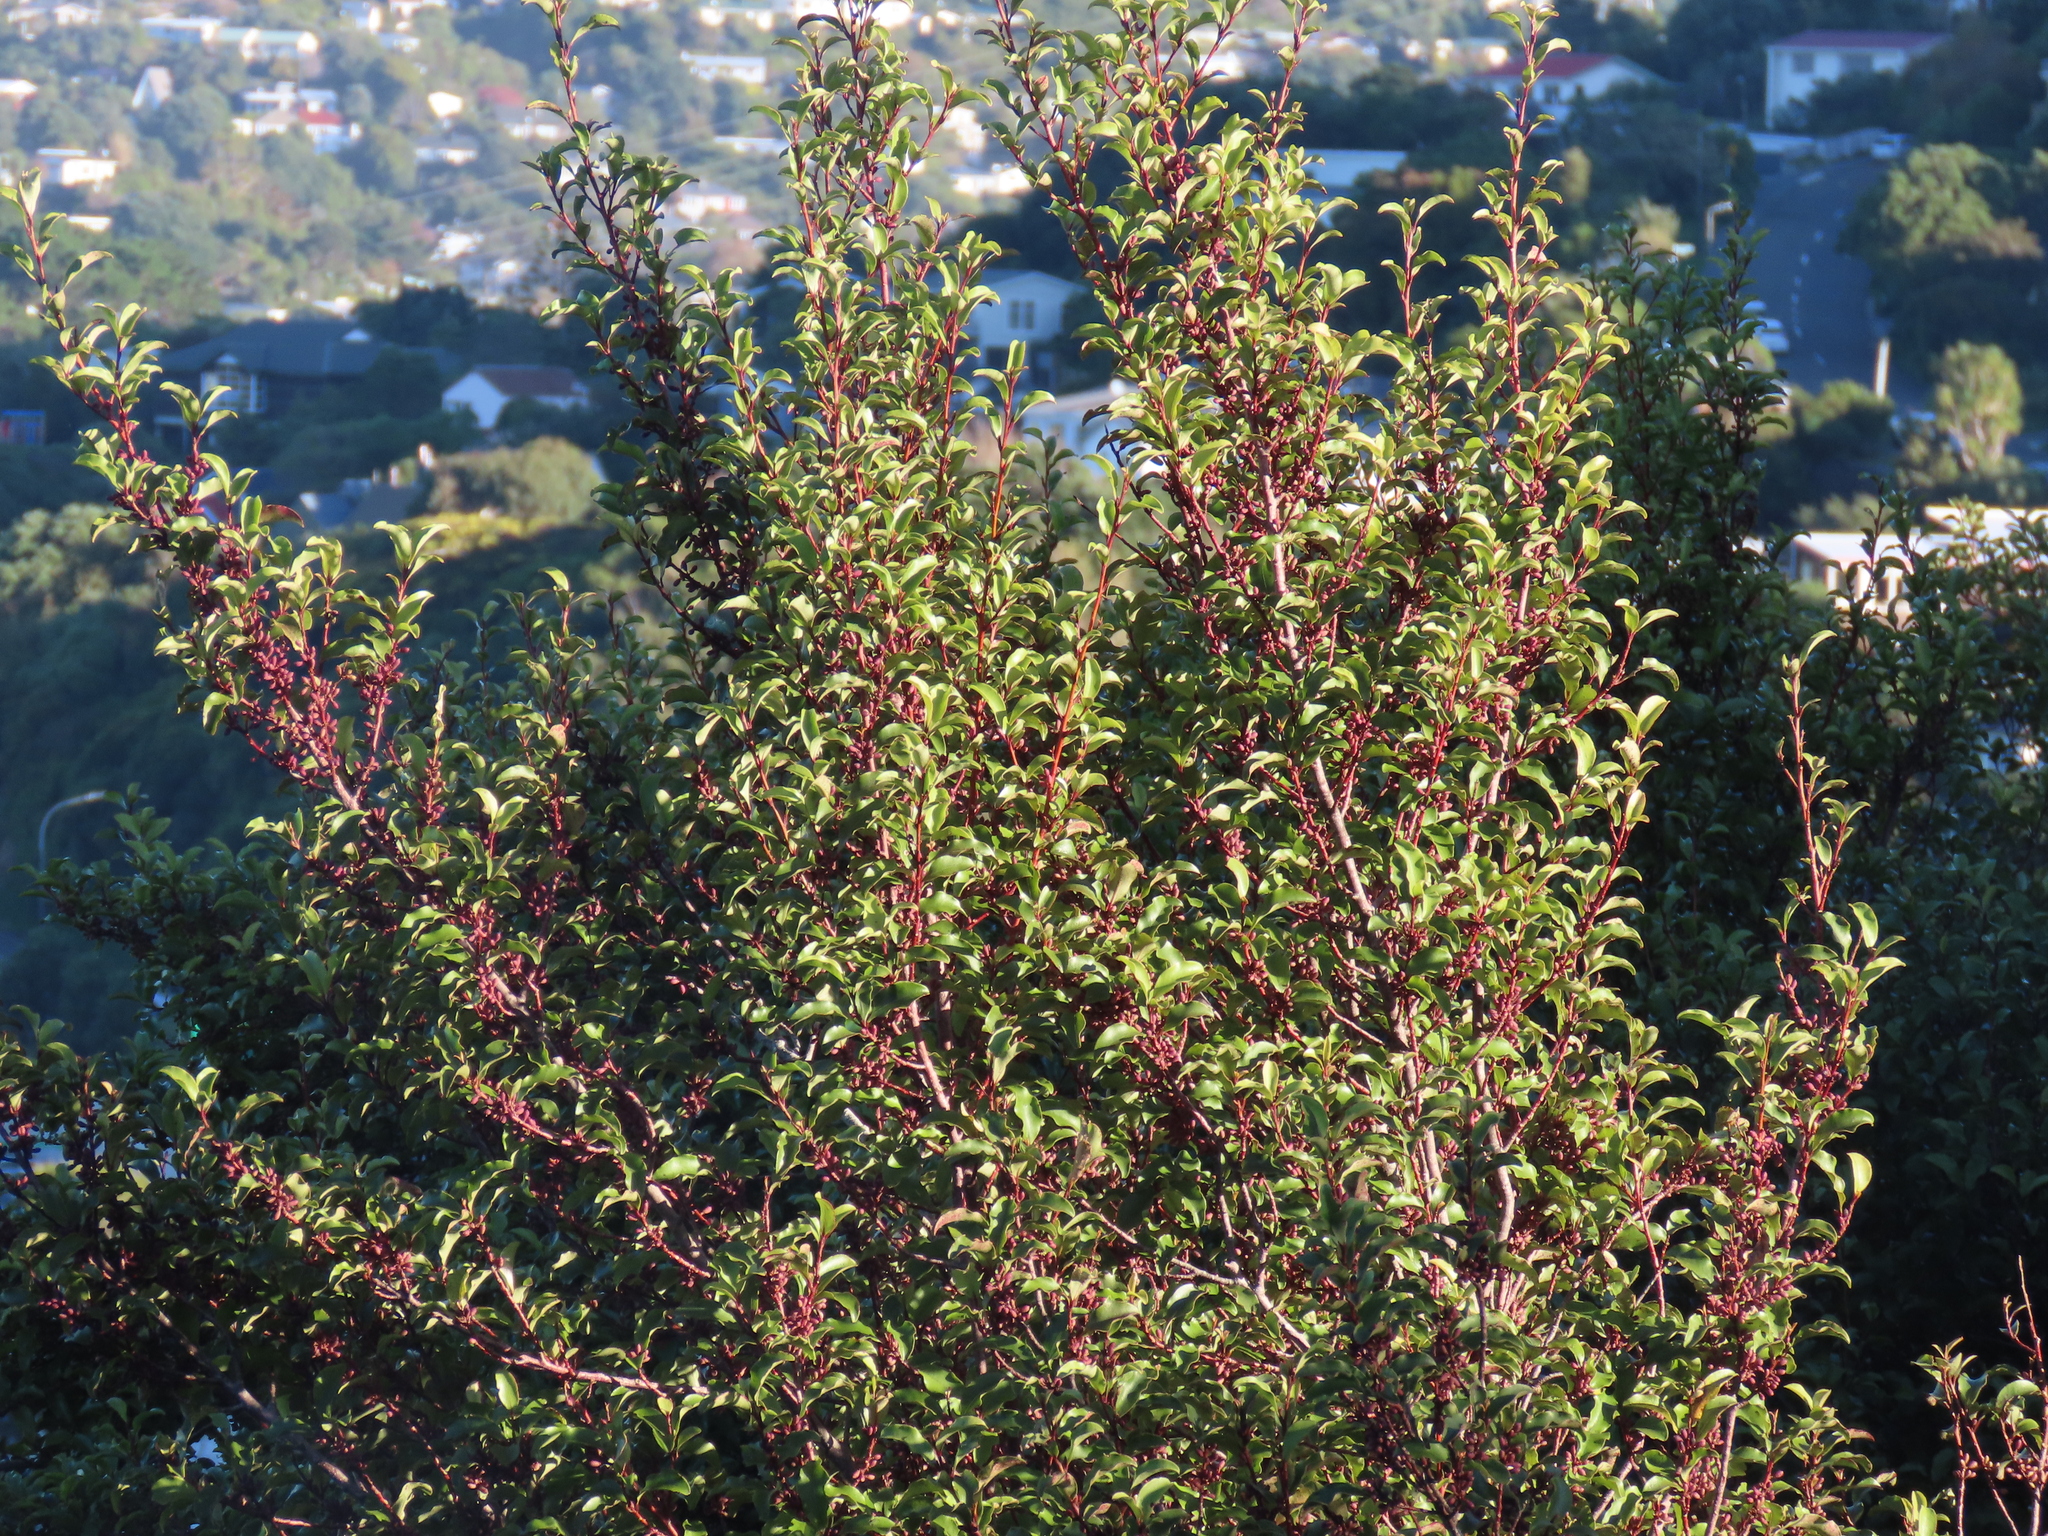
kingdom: Plantae
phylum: Tracheophyta
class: Magnoliopsida
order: Ericales
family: Primulaceae
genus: Myrsine
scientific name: Myrsine australis
